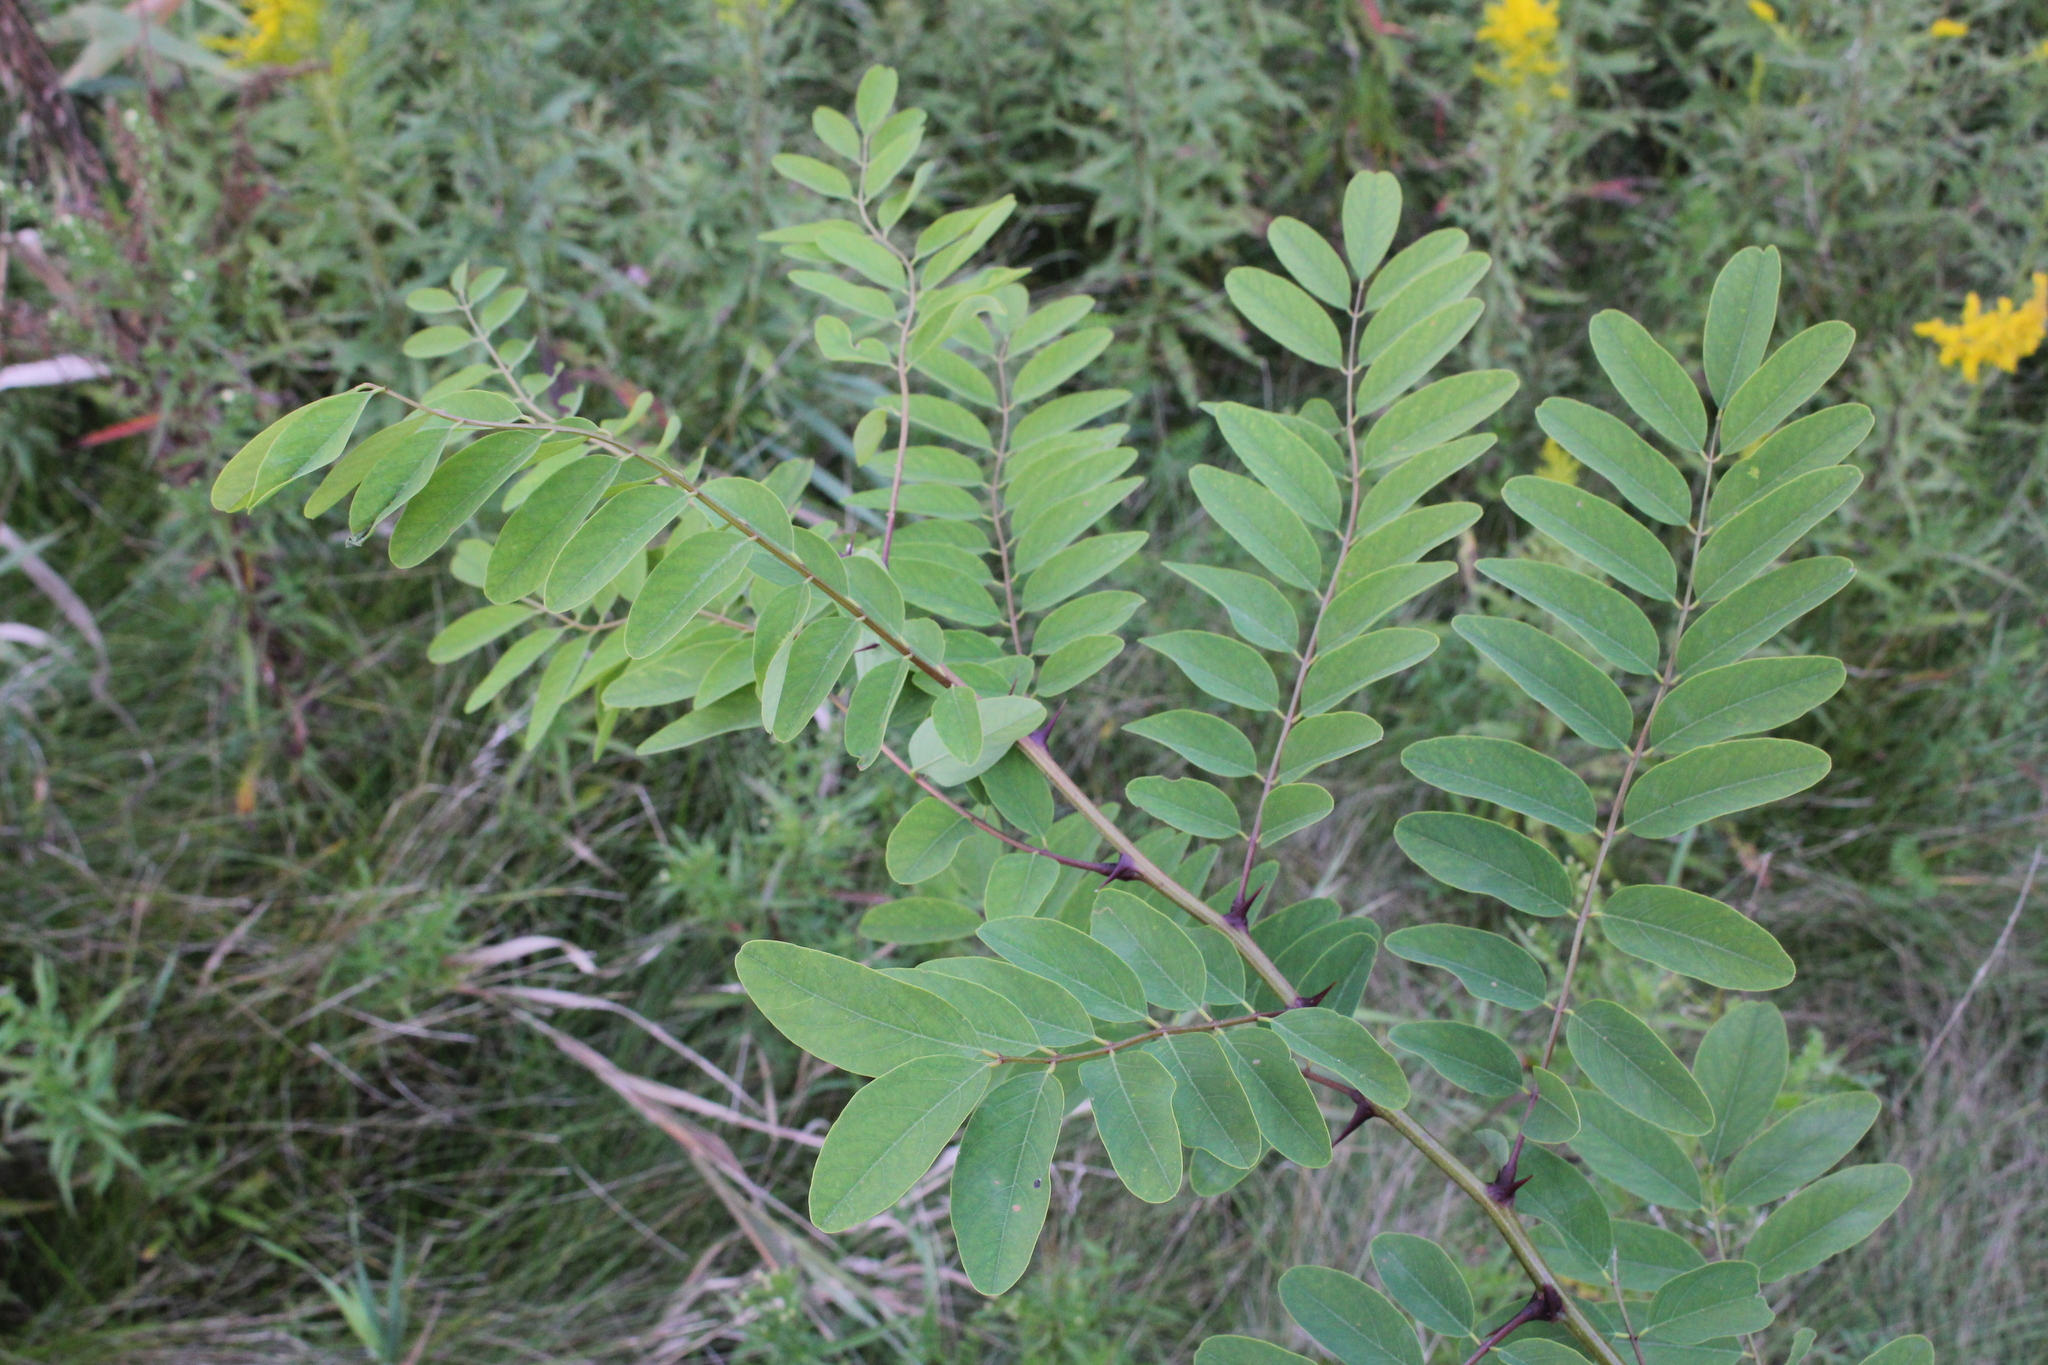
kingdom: Plantae
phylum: Tracheophyta
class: Magnoliopsida
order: Fabales
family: Fabaceae
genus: Robinia
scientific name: Robinia pseudoacacia
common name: Black locust
